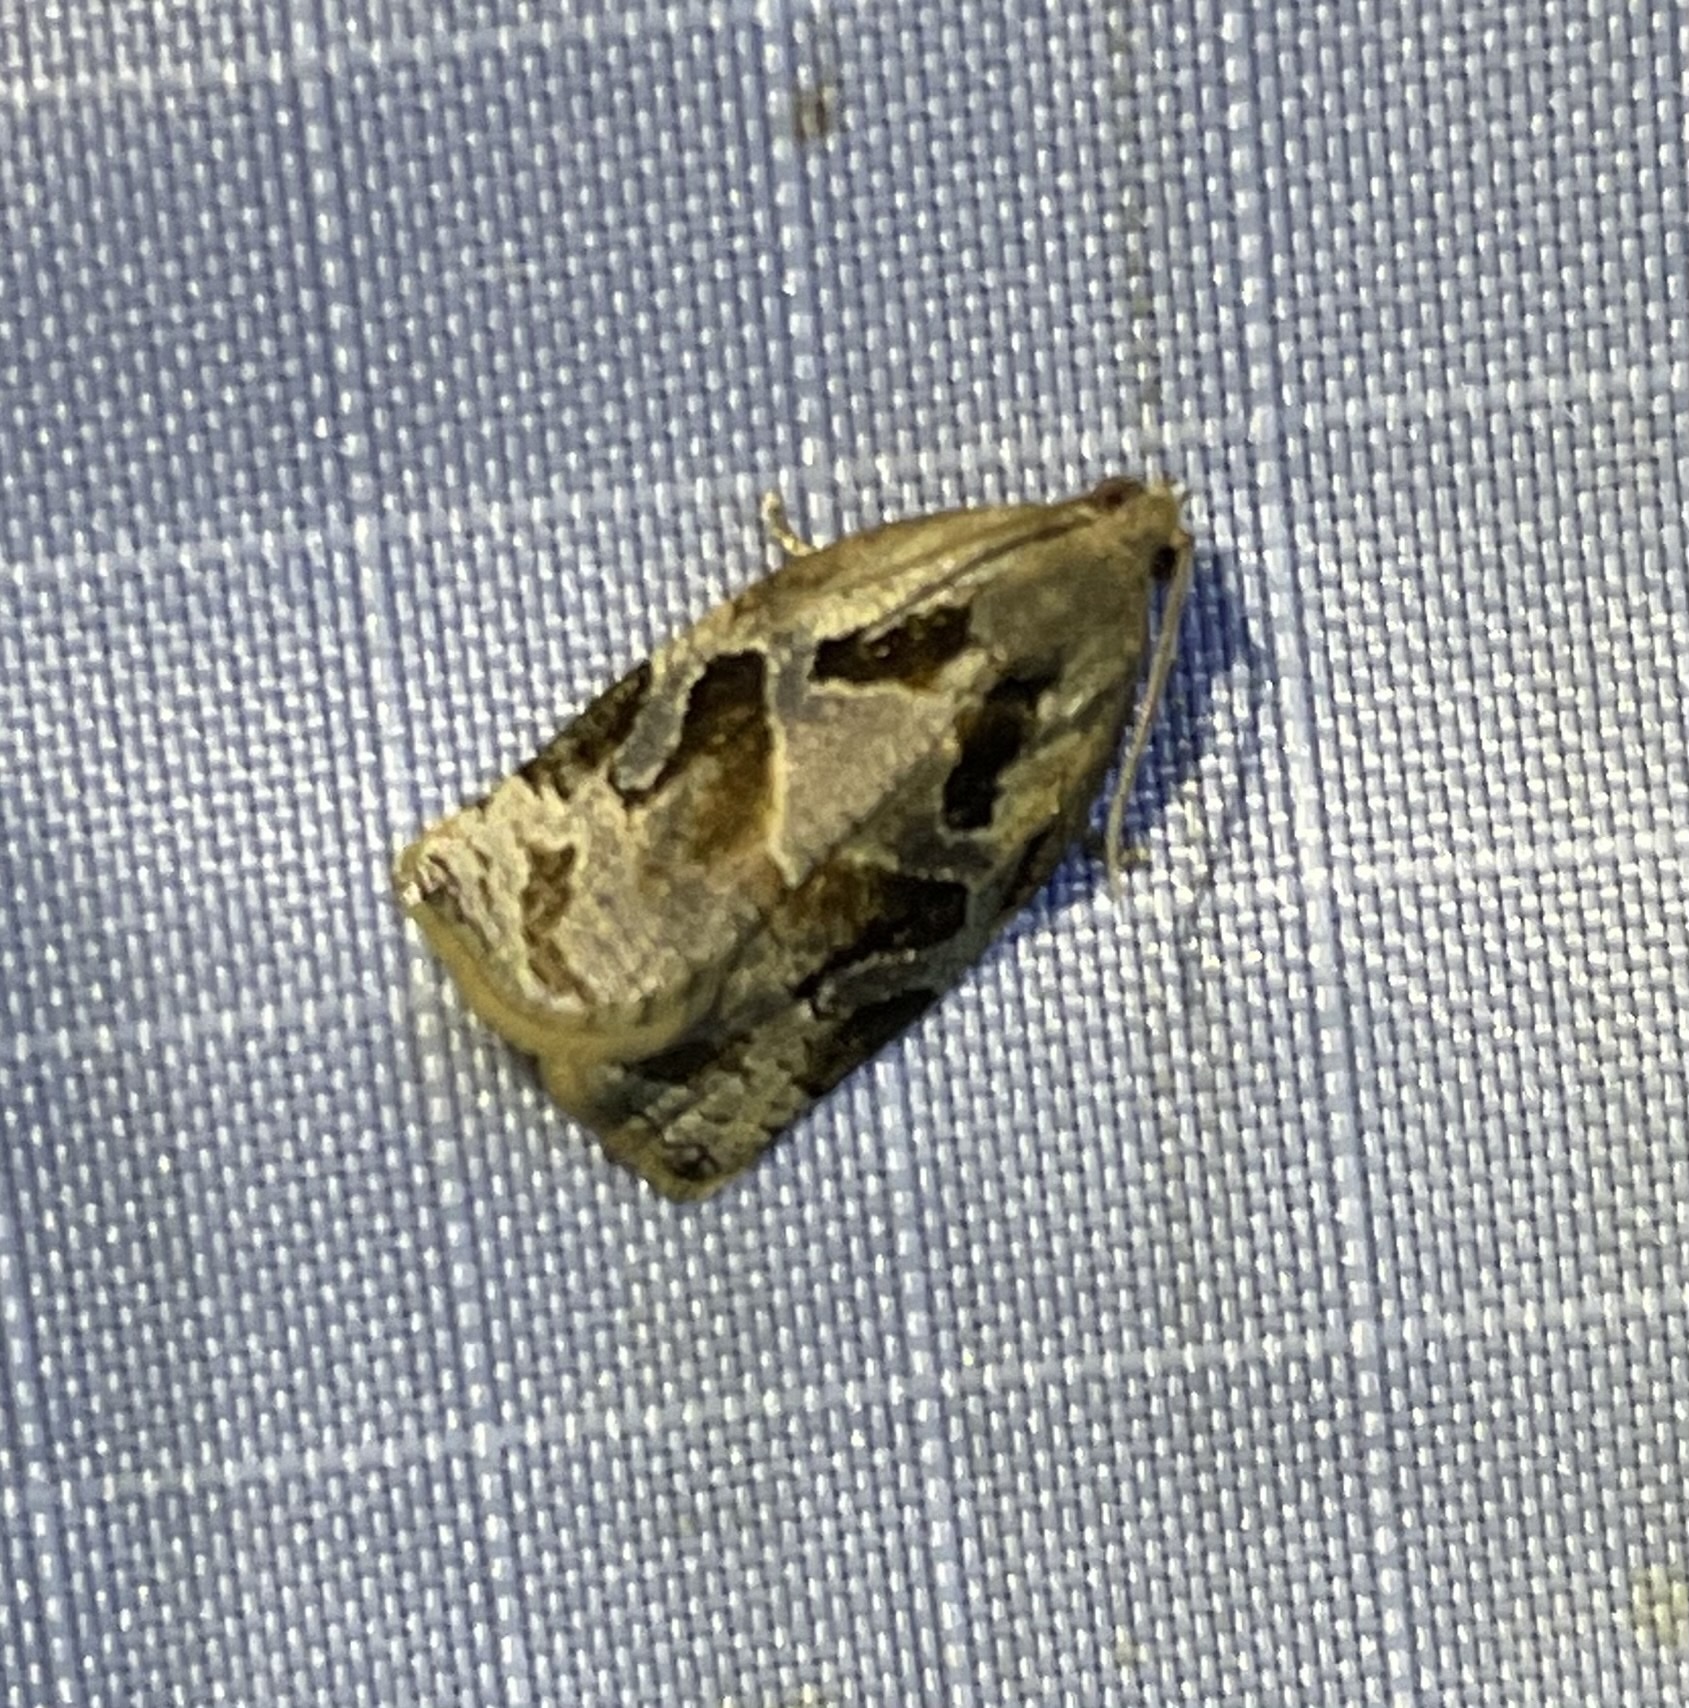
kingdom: Animalia
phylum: Arthropoda
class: Insecta
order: Lepidoptera
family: Tortricidae
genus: Archips
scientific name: Archips grisea
